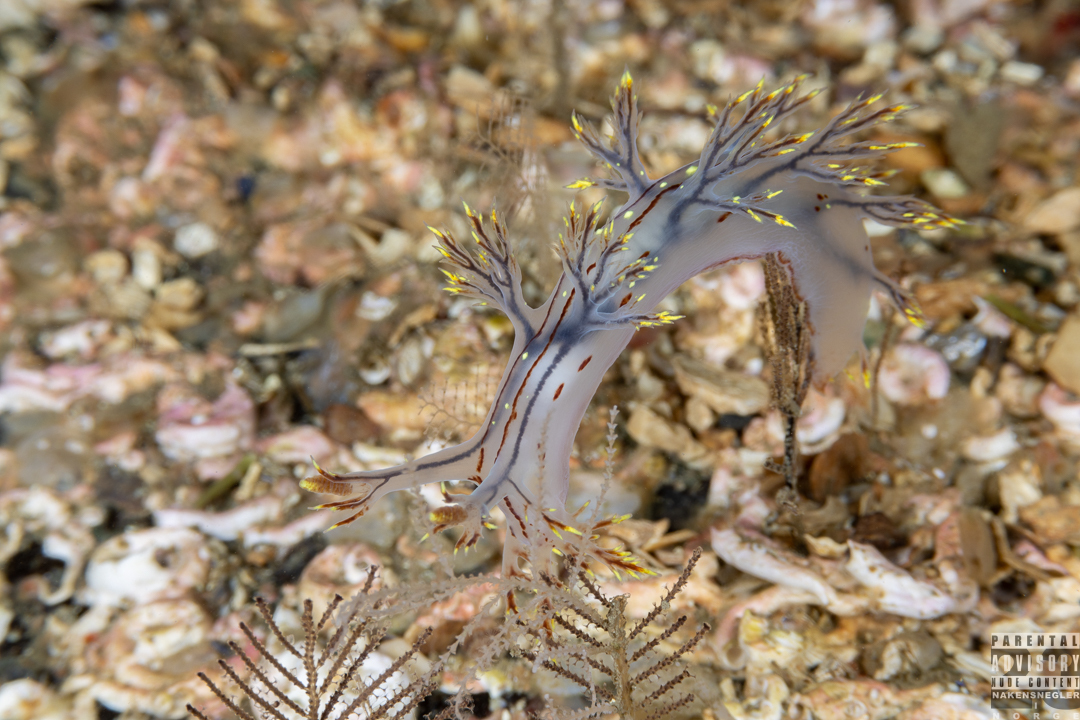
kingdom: Animalia
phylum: Mollusca
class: Gastropoda
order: Nudibranchia
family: Dendronotidae
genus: Dendronotus
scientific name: Dendronotus yrjargul
